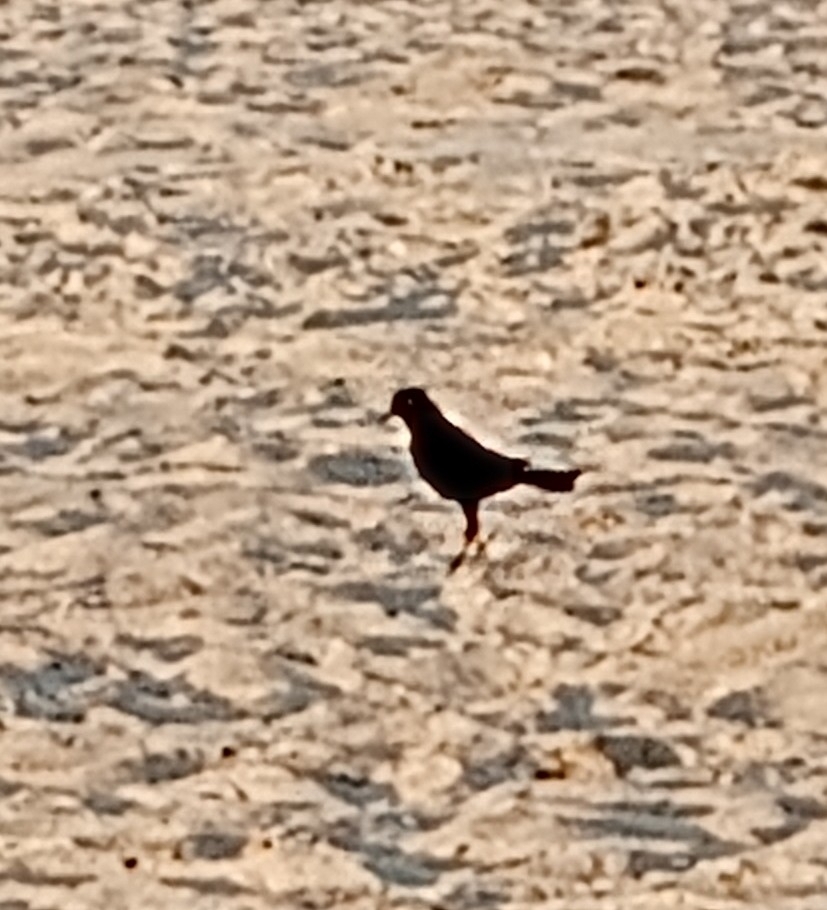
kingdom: Animalia
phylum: Chordata
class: Aves
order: Passeriformes
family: Icteridae
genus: Quiscalus
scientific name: Quiscalus major
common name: Boat-tailed grackle
